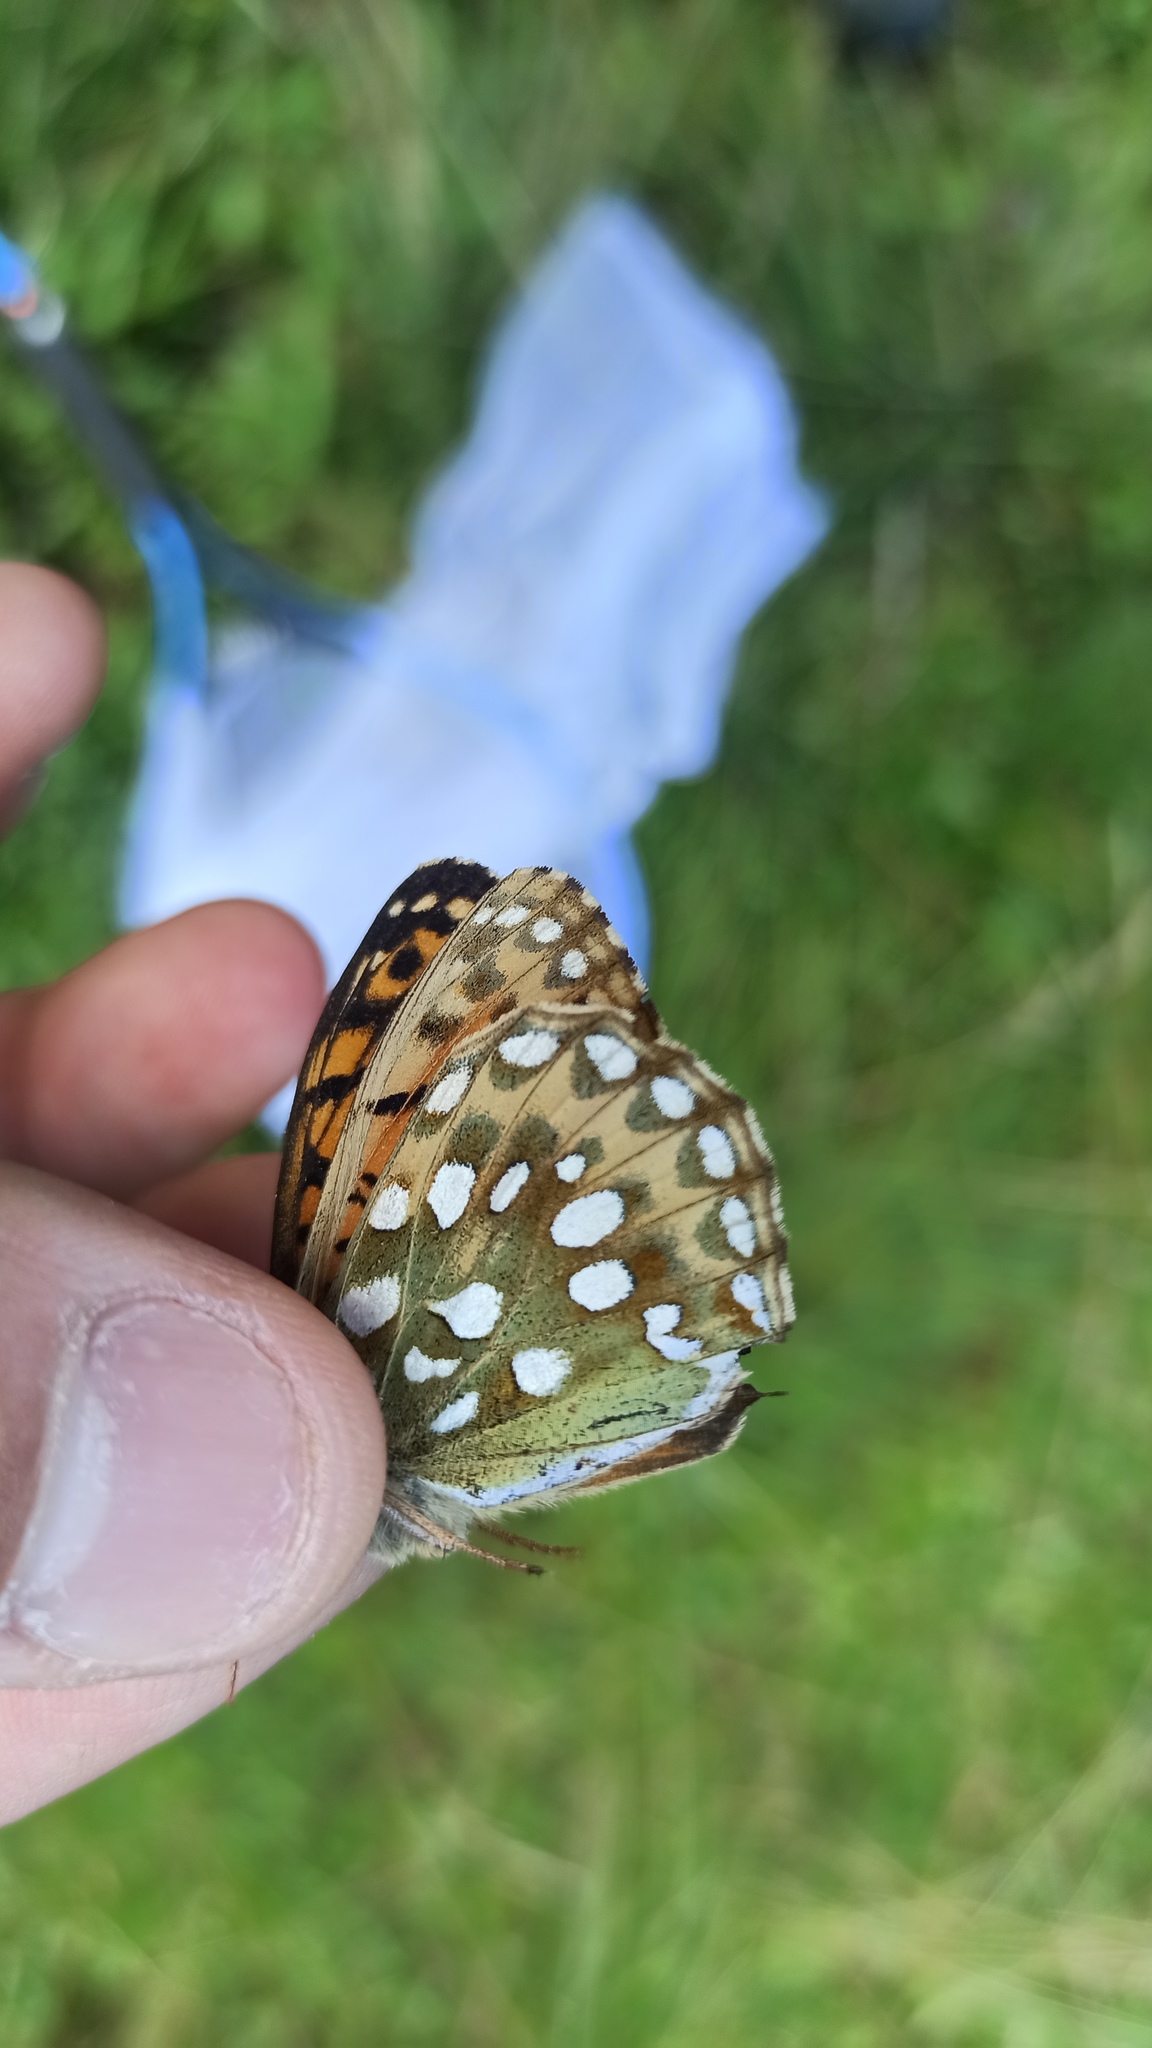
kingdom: Animalia
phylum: Arthropoda
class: Insecta
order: Lepidoptera
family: Nymphalidae
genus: Speyeria
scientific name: Speyeria aglaja
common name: Dark green fritillary
